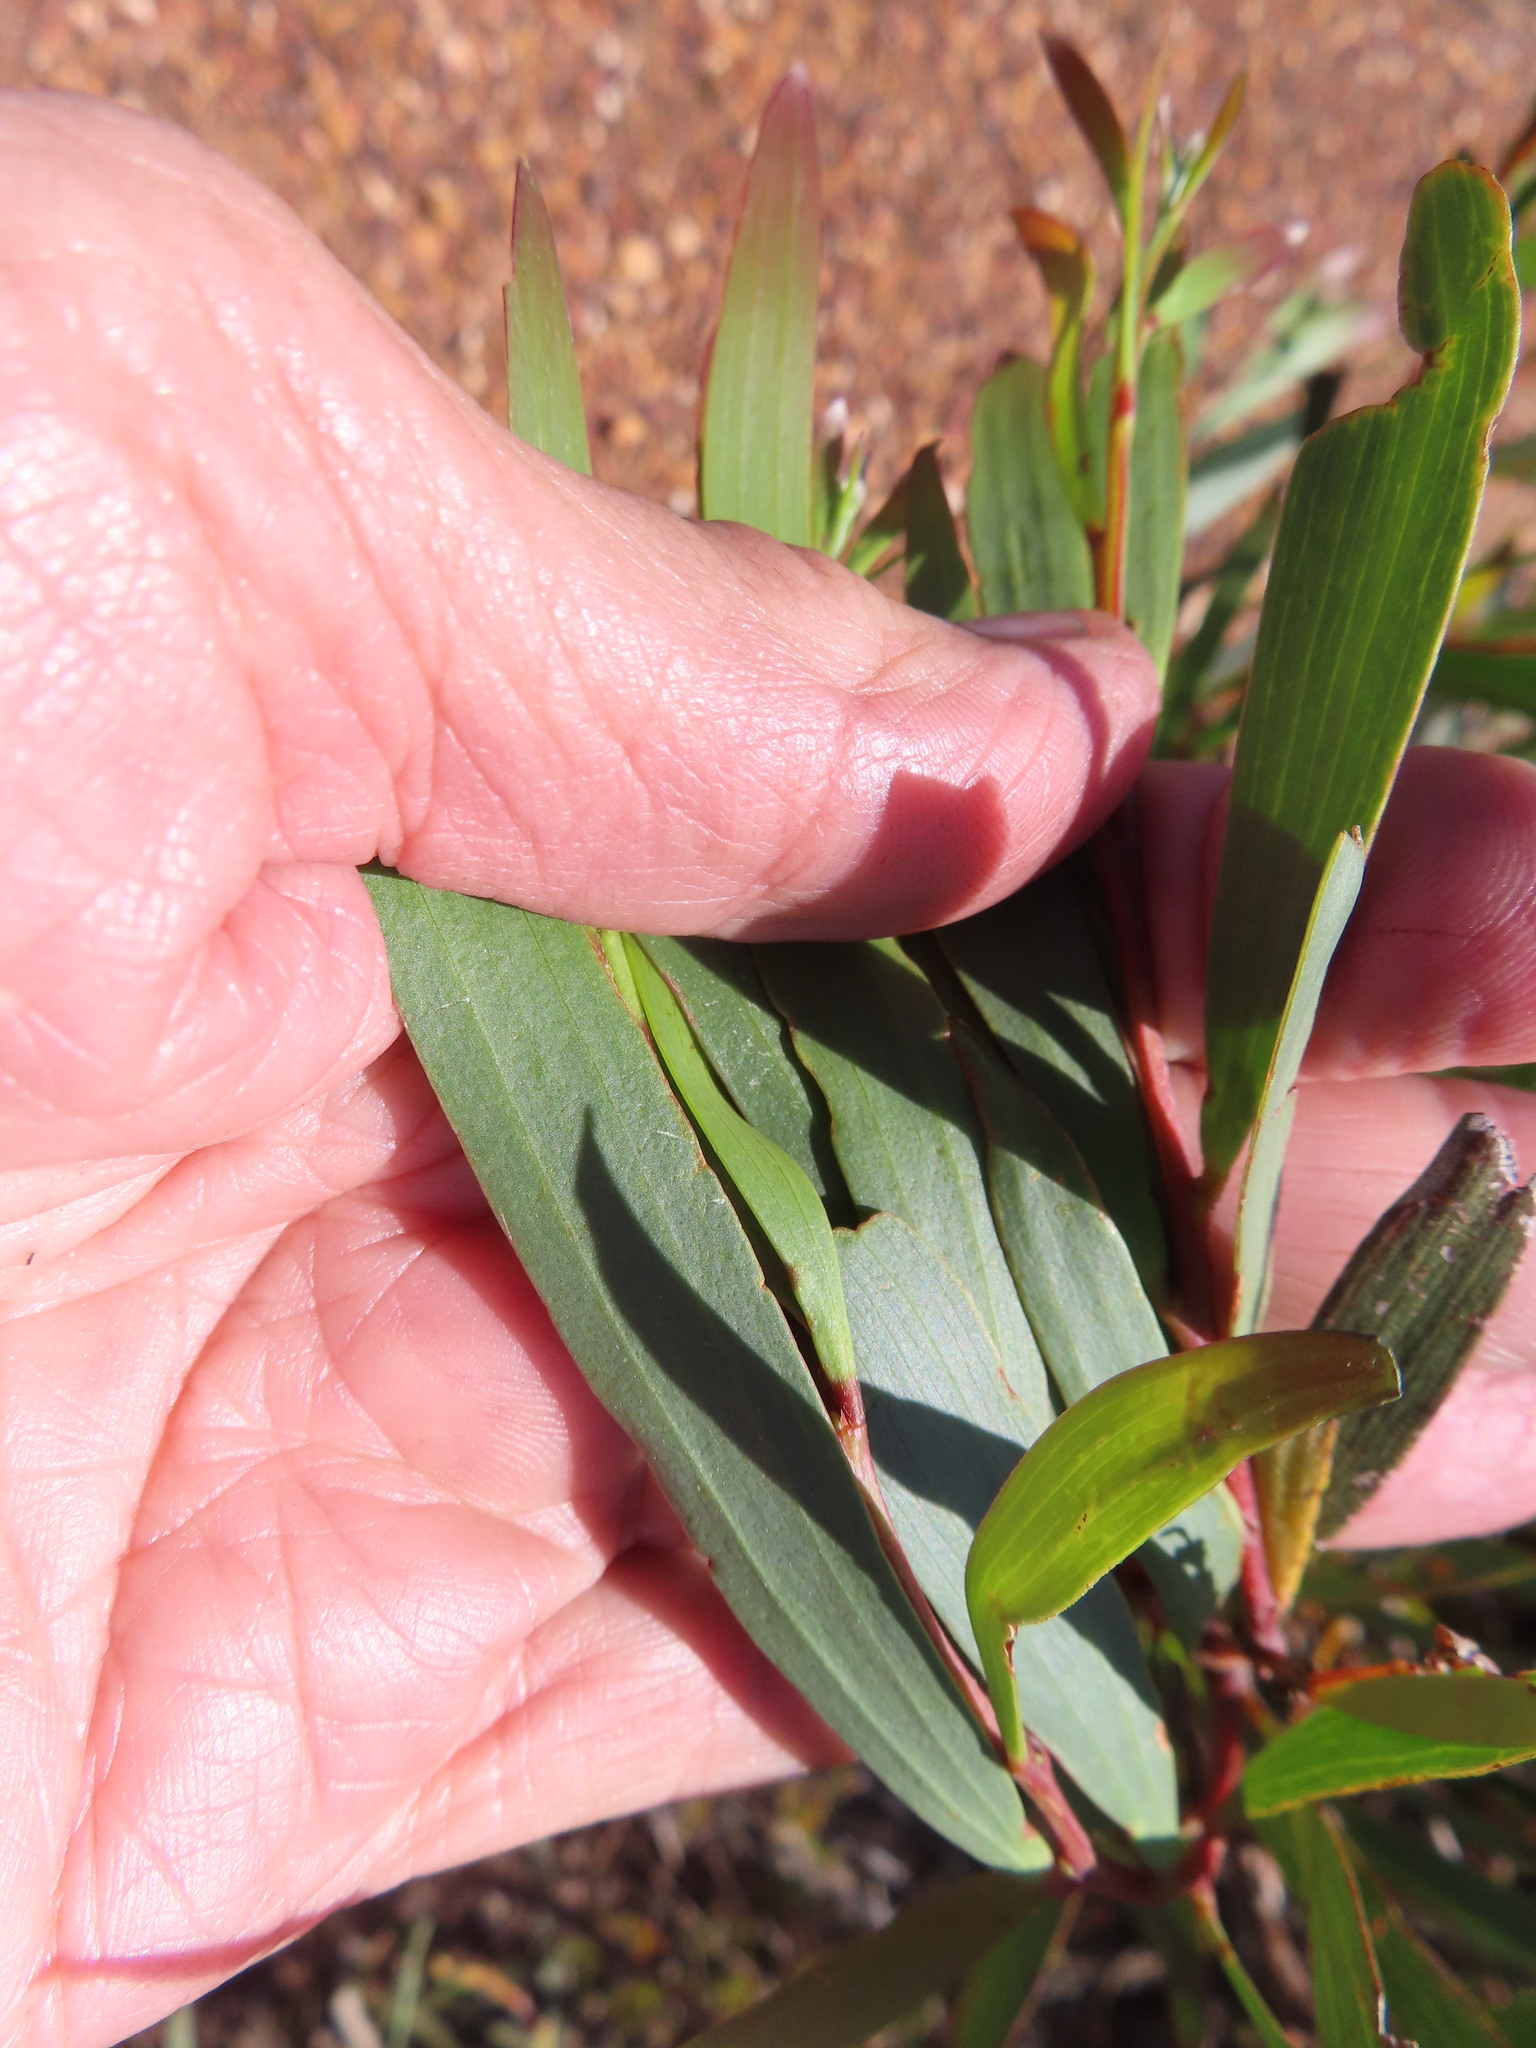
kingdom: Plantae
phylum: Tracheophyta
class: Magnoliopsida
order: Fabales
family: Fabaceae
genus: Acacia
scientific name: Acacia longifolia
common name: Sydney golden wattle
